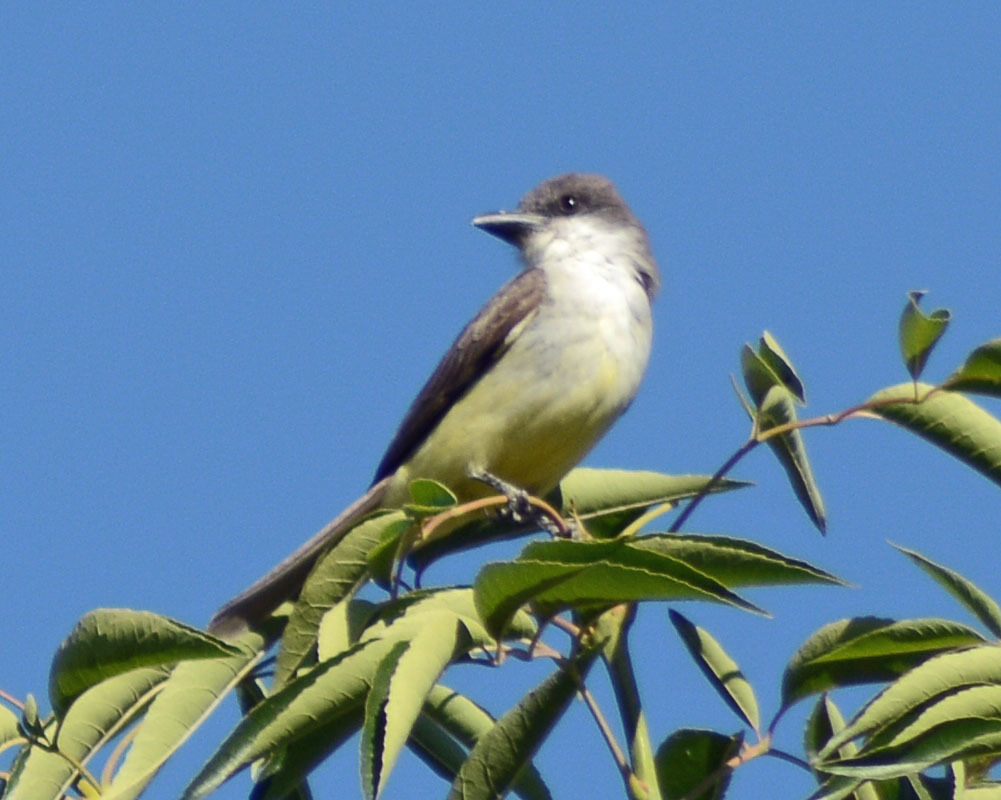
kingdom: Animalia
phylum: Chordata
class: Aves
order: Passeriformes
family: Tyrannidae
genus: Tyrannus
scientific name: Tyrannus crassirostris
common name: Thick-billed kingbird
